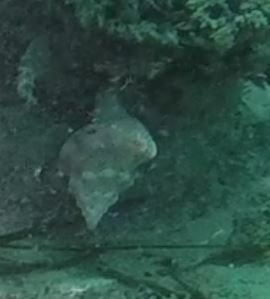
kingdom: Animalia
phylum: Mollusca
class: Gastropoda
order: Neogastropoda
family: Austrosiphonidae
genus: Kelletia
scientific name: Kelletia kelletii
